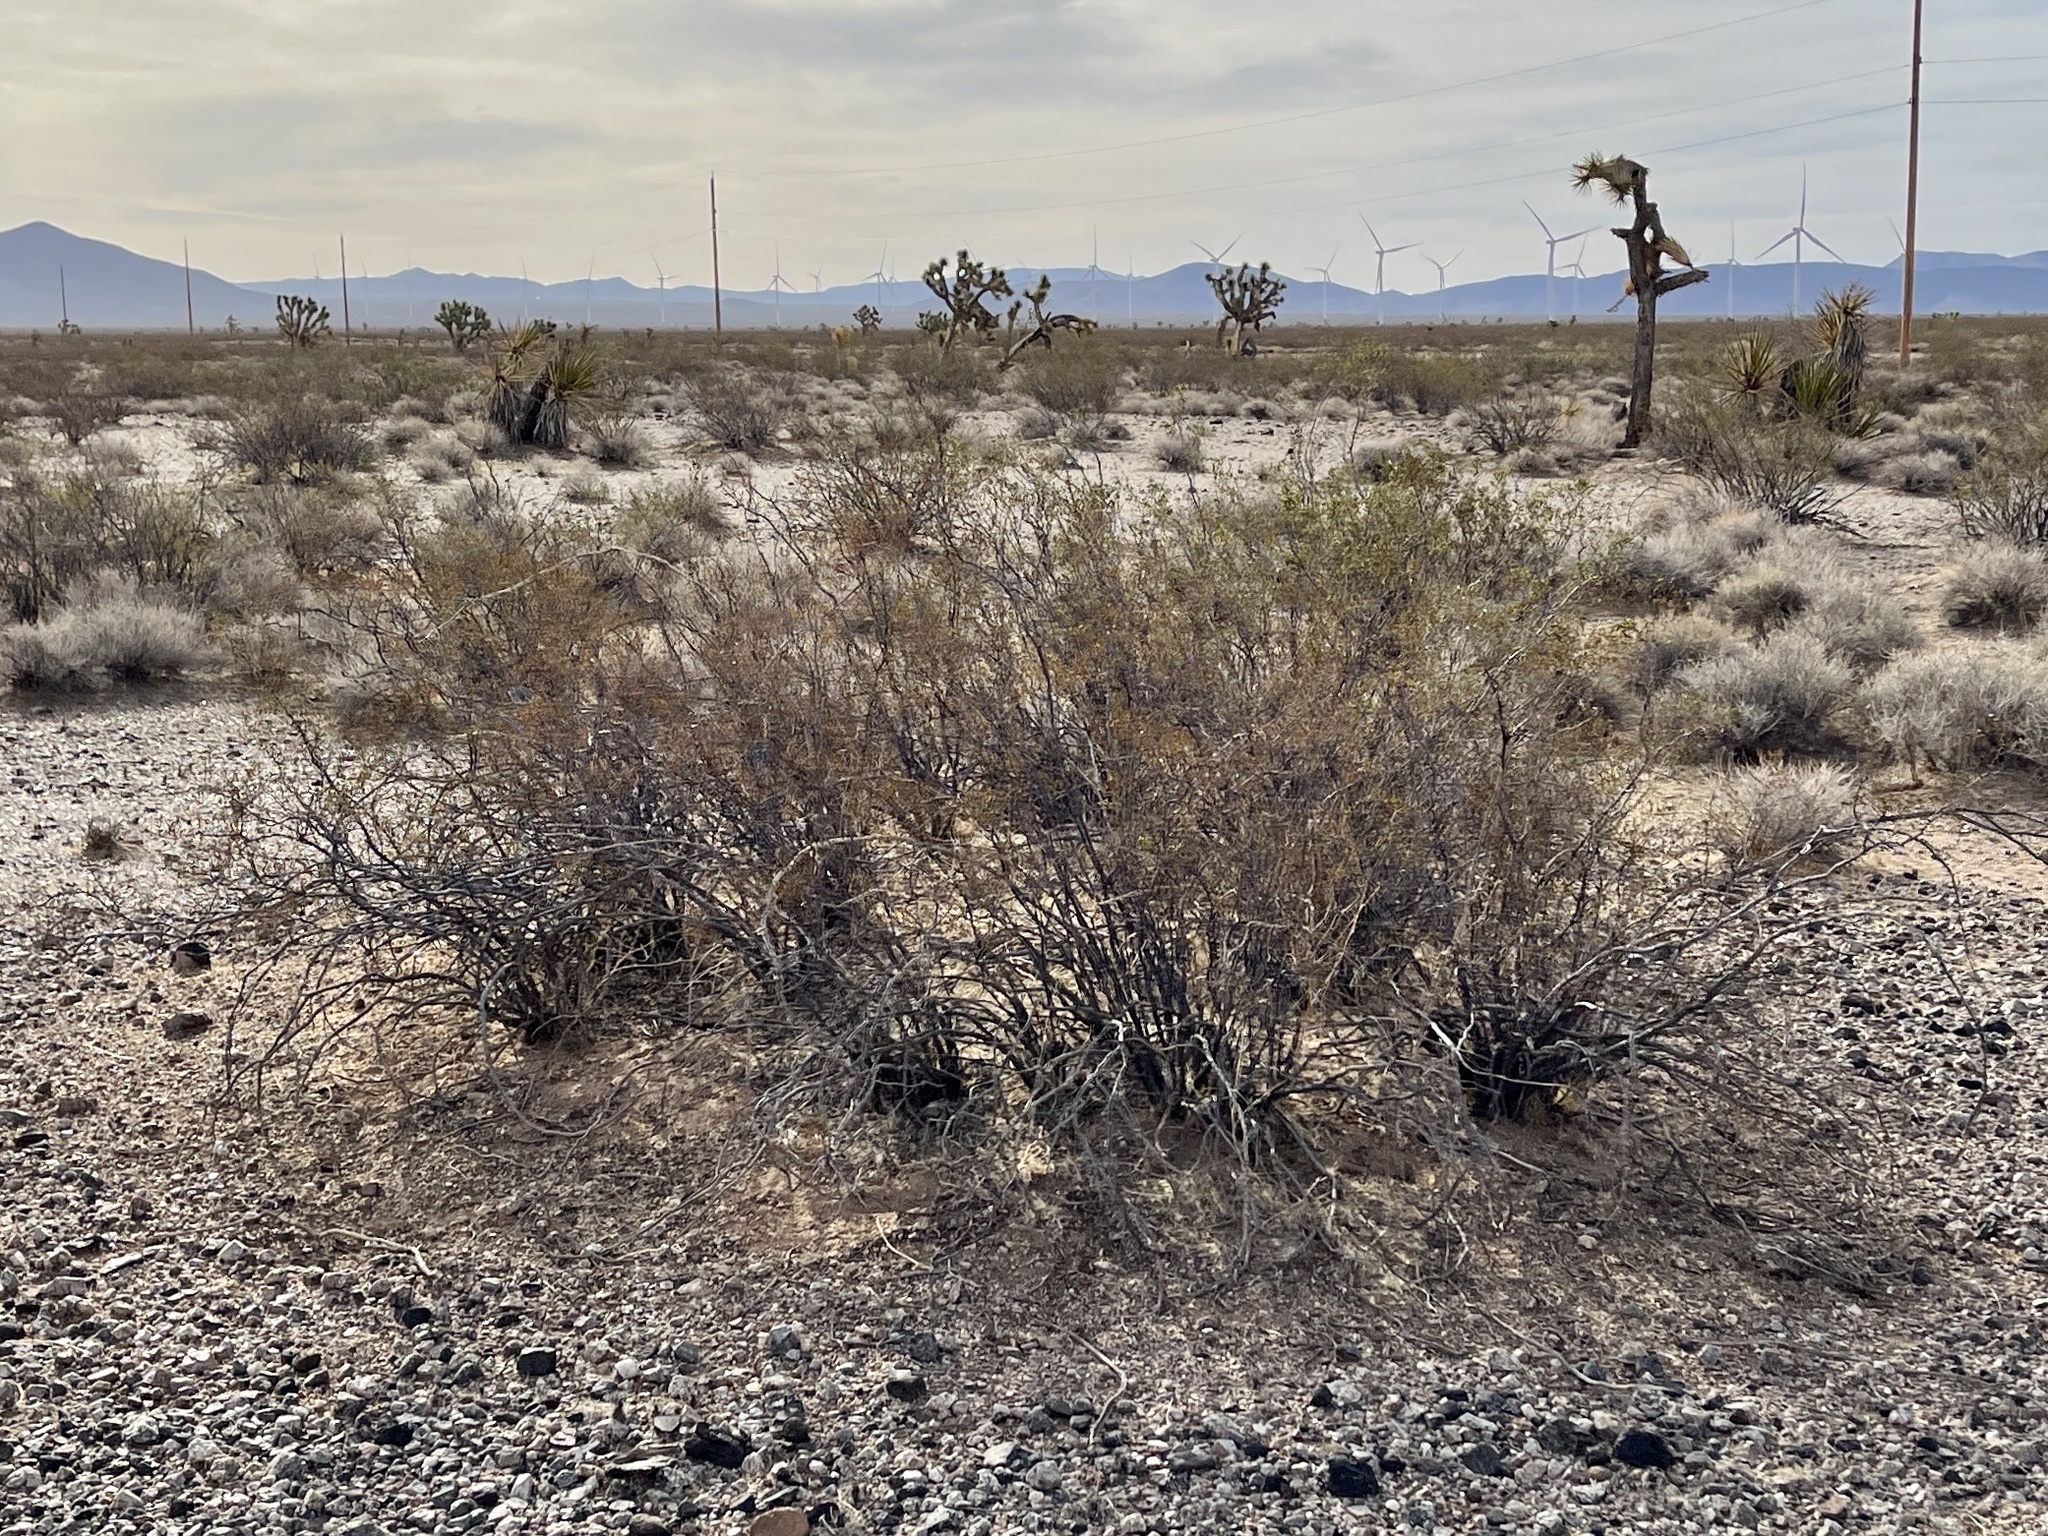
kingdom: Plantae
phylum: Tracheophyta
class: Magnoliopsida
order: Zygophyllales
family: Zygophyllaceae
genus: Larrea
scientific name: Larrea tridentata
